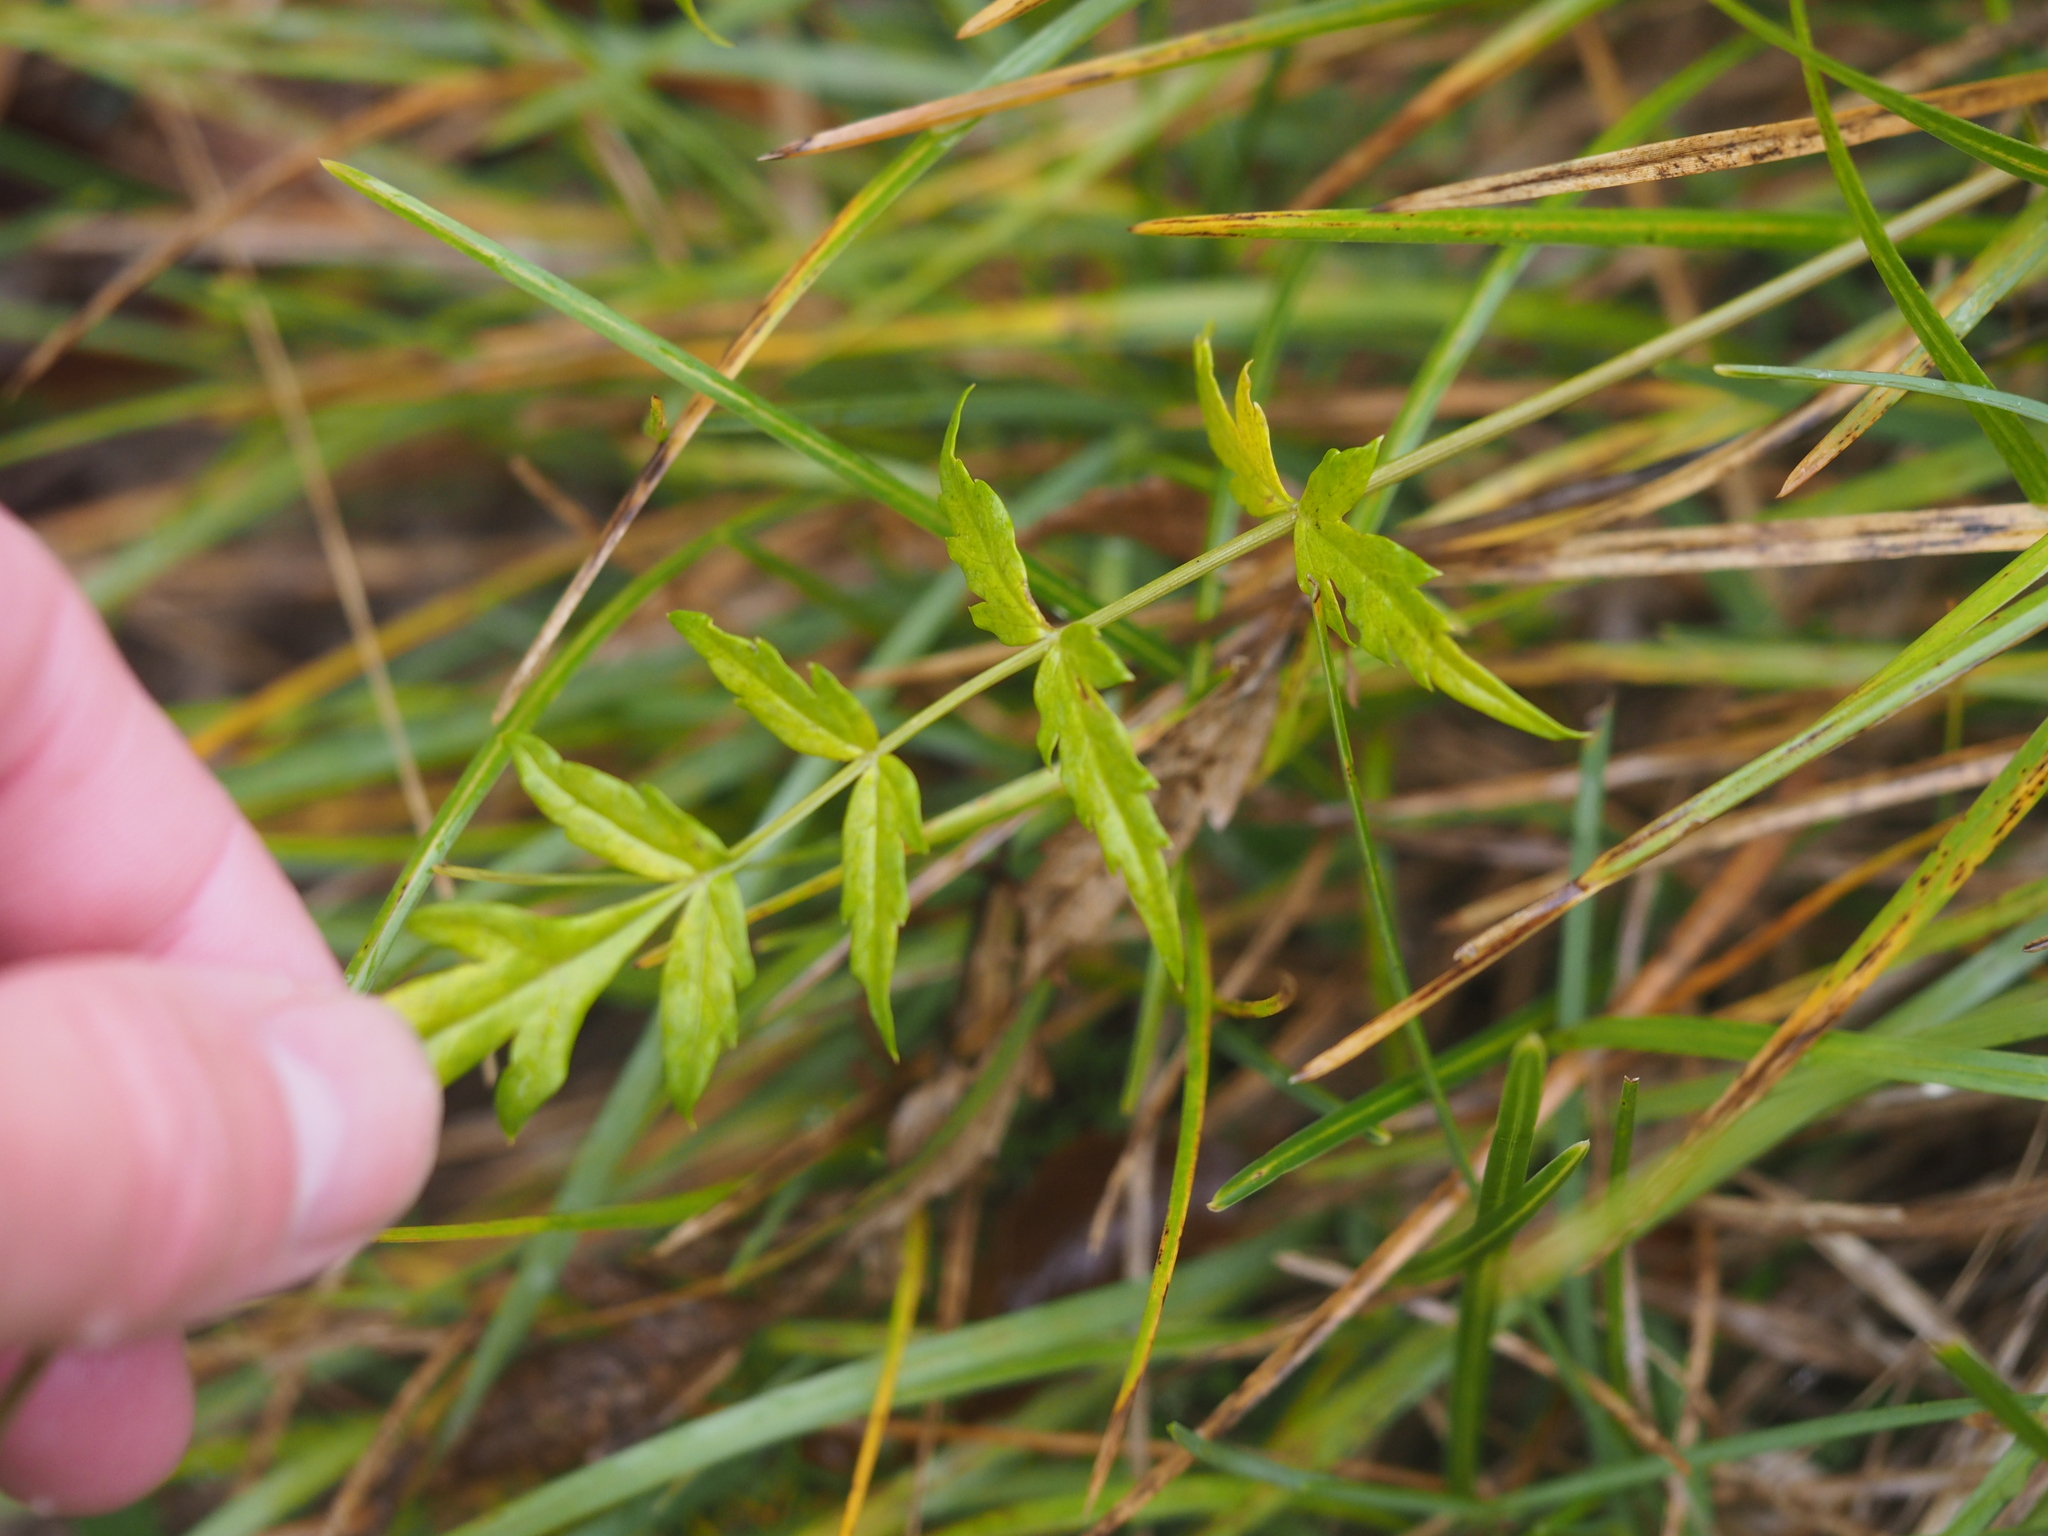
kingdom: Plantae
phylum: Tracheophyta
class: Magnoliopsida
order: Apiales
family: Apiaceae
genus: Heracleum
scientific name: Heracleum austriacum
